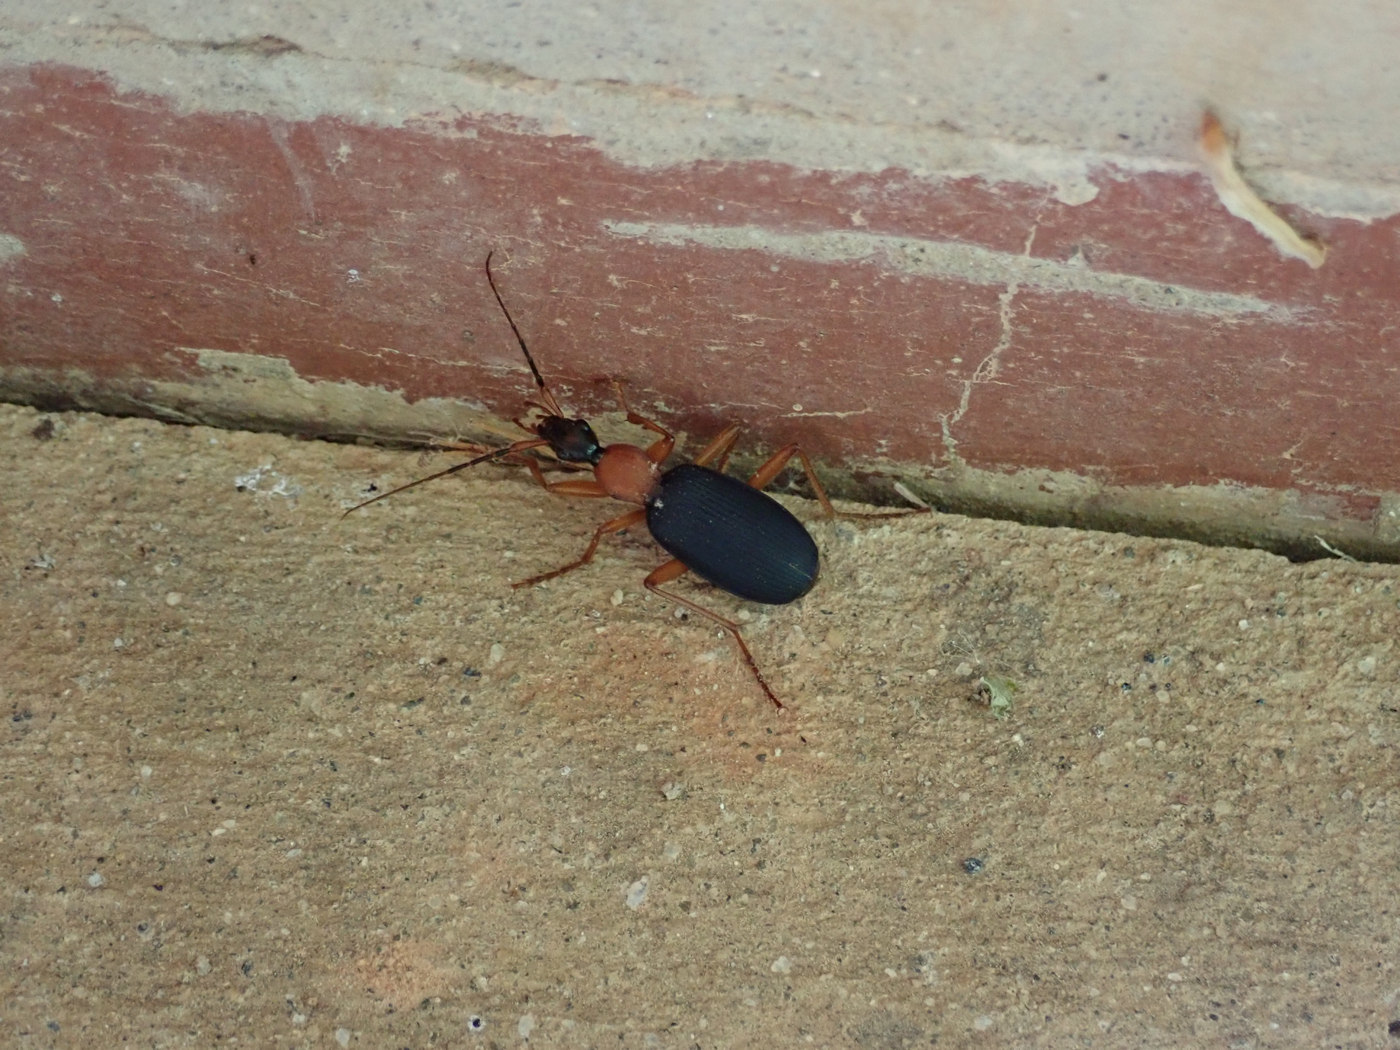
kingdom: Animalia
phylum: Arthropoda
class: Insecta
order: Coleoptera
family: Carabidae
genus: Galerita
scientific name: Galerita bicolor
